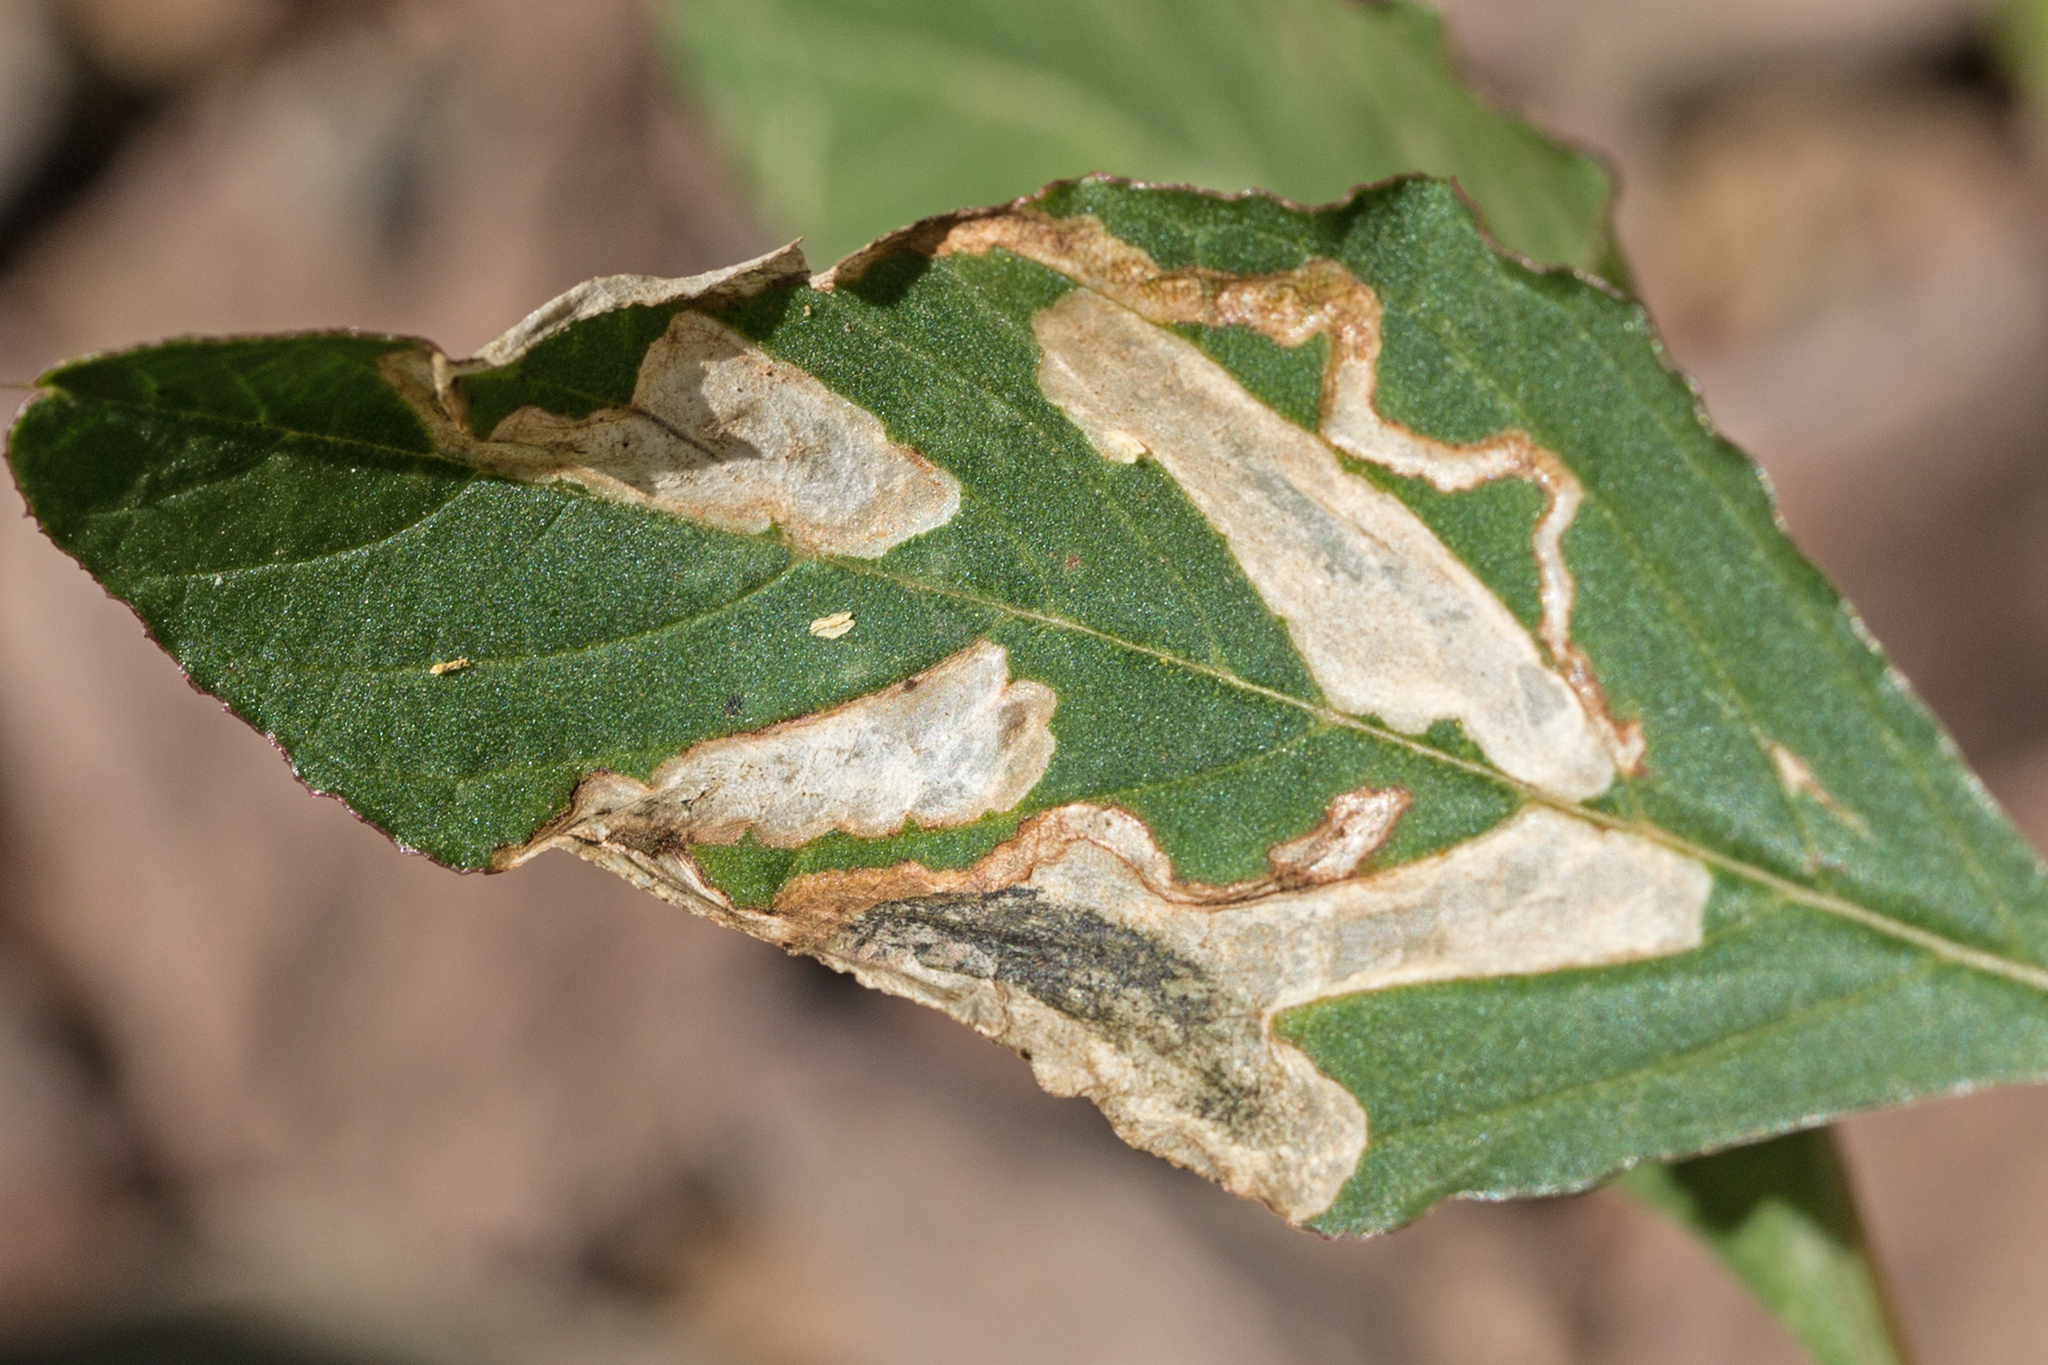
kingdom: Animalia
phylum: Arthropoda
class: Insecta
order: Diptera
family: Anthomyiidae
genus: Pegomya
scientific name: Pegomya wygodzinskyi
